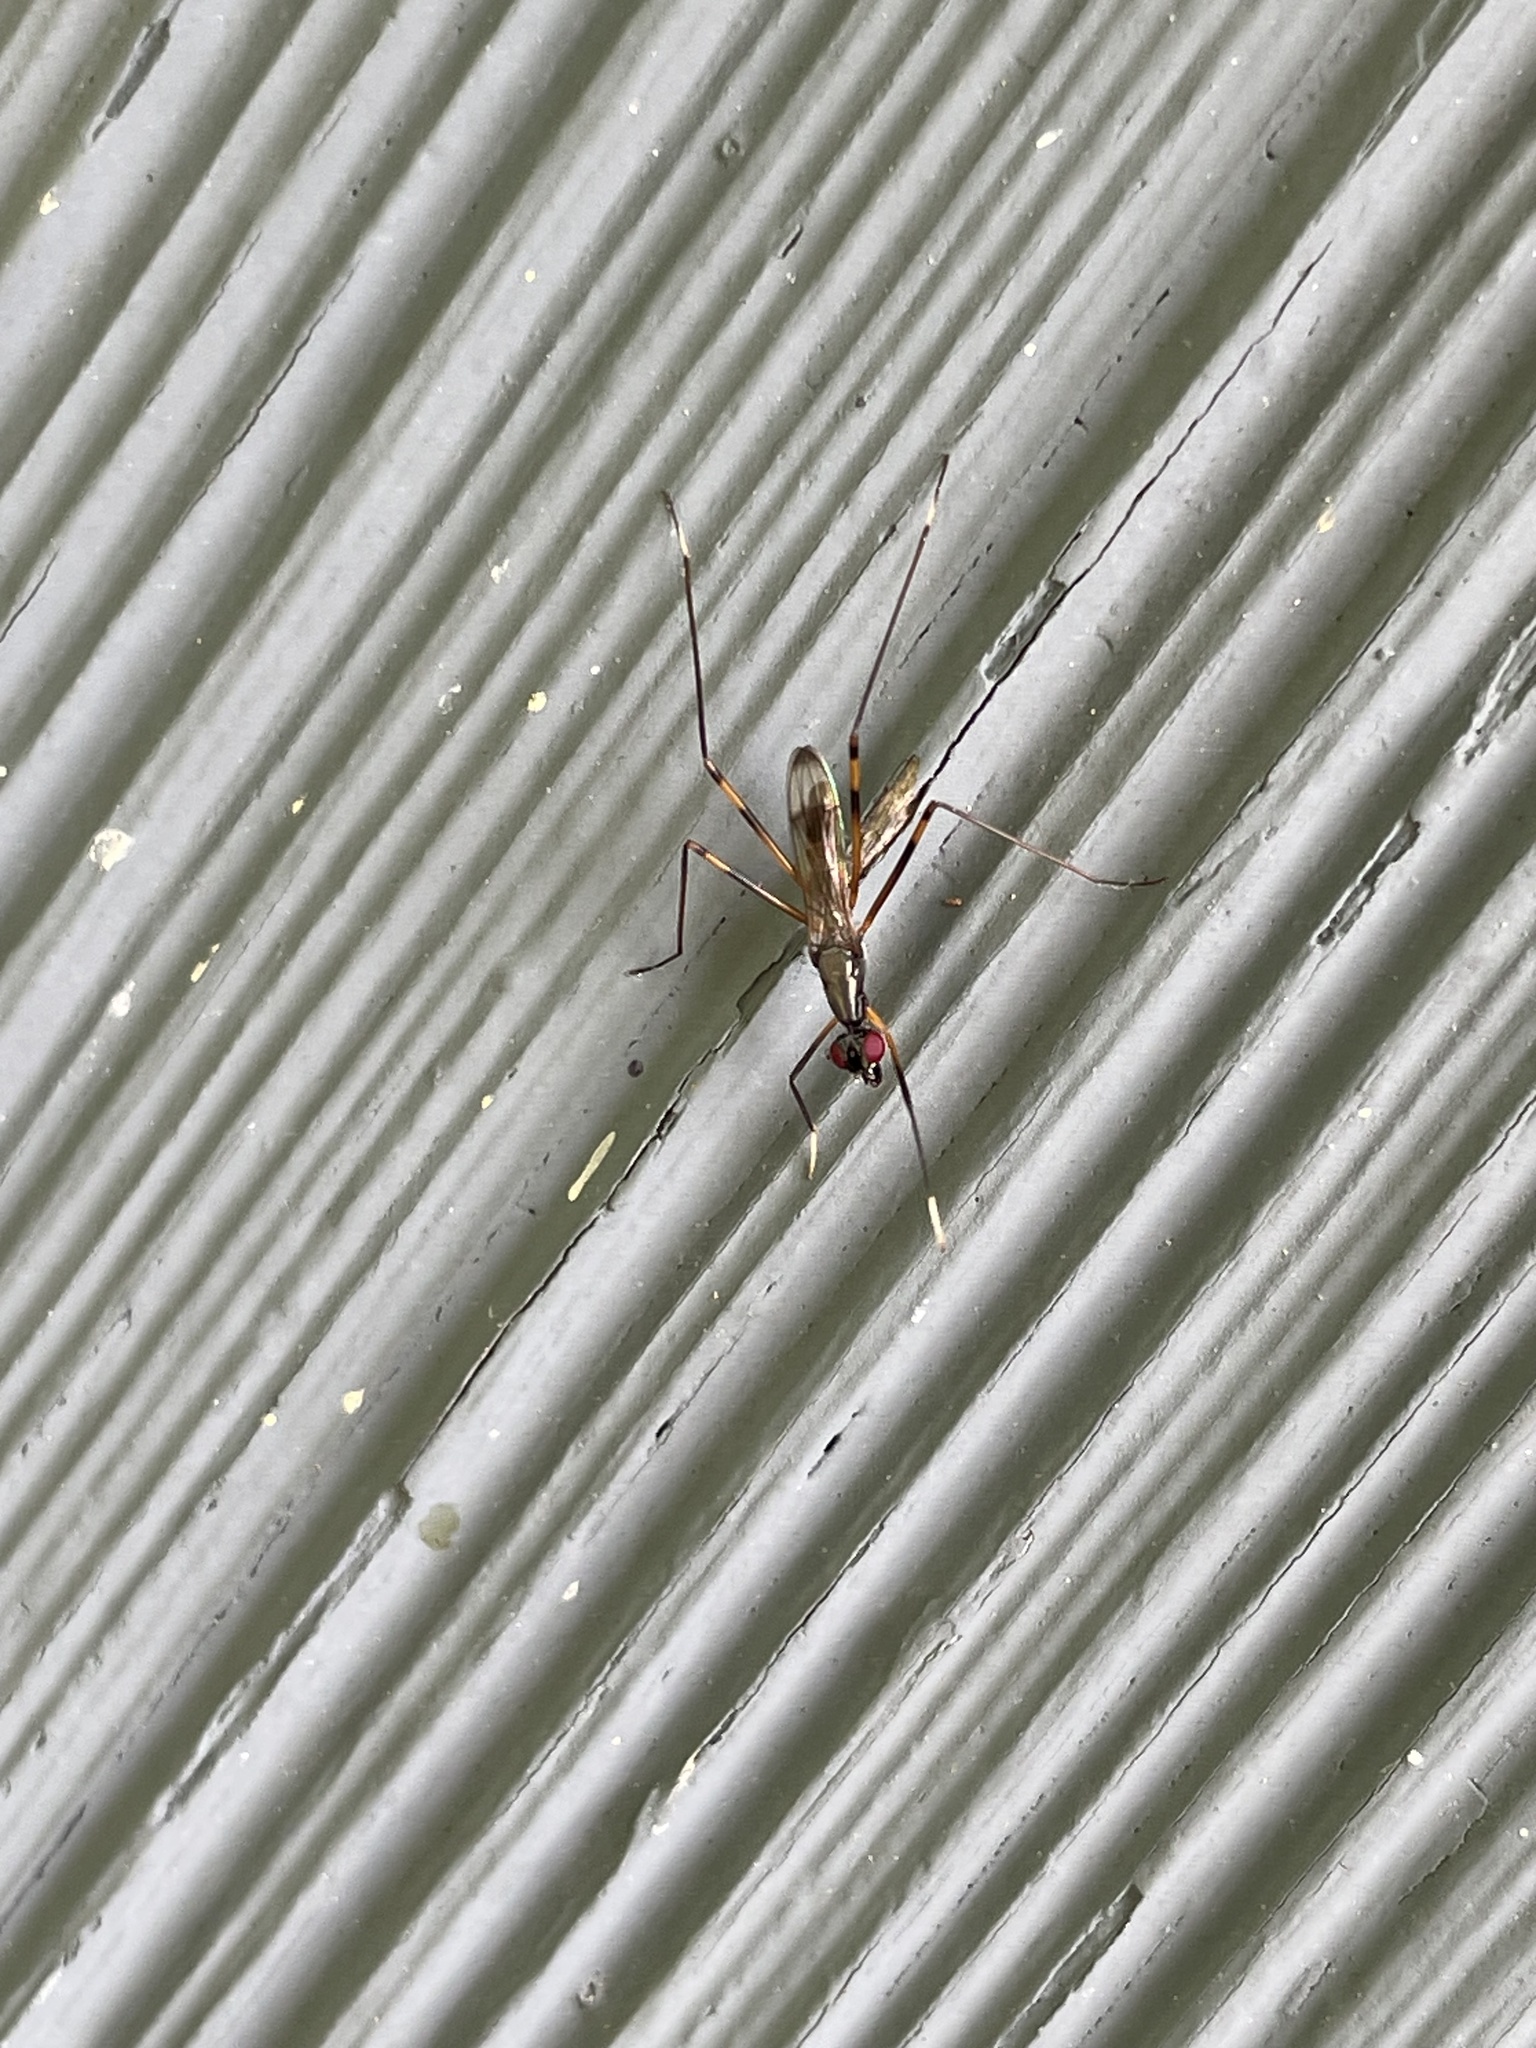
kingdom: Animalia
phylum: Arthropoda
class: Insecta
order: Diptera
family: Micropezidae
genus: Rainieria
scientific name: Rainieria antennaepes
